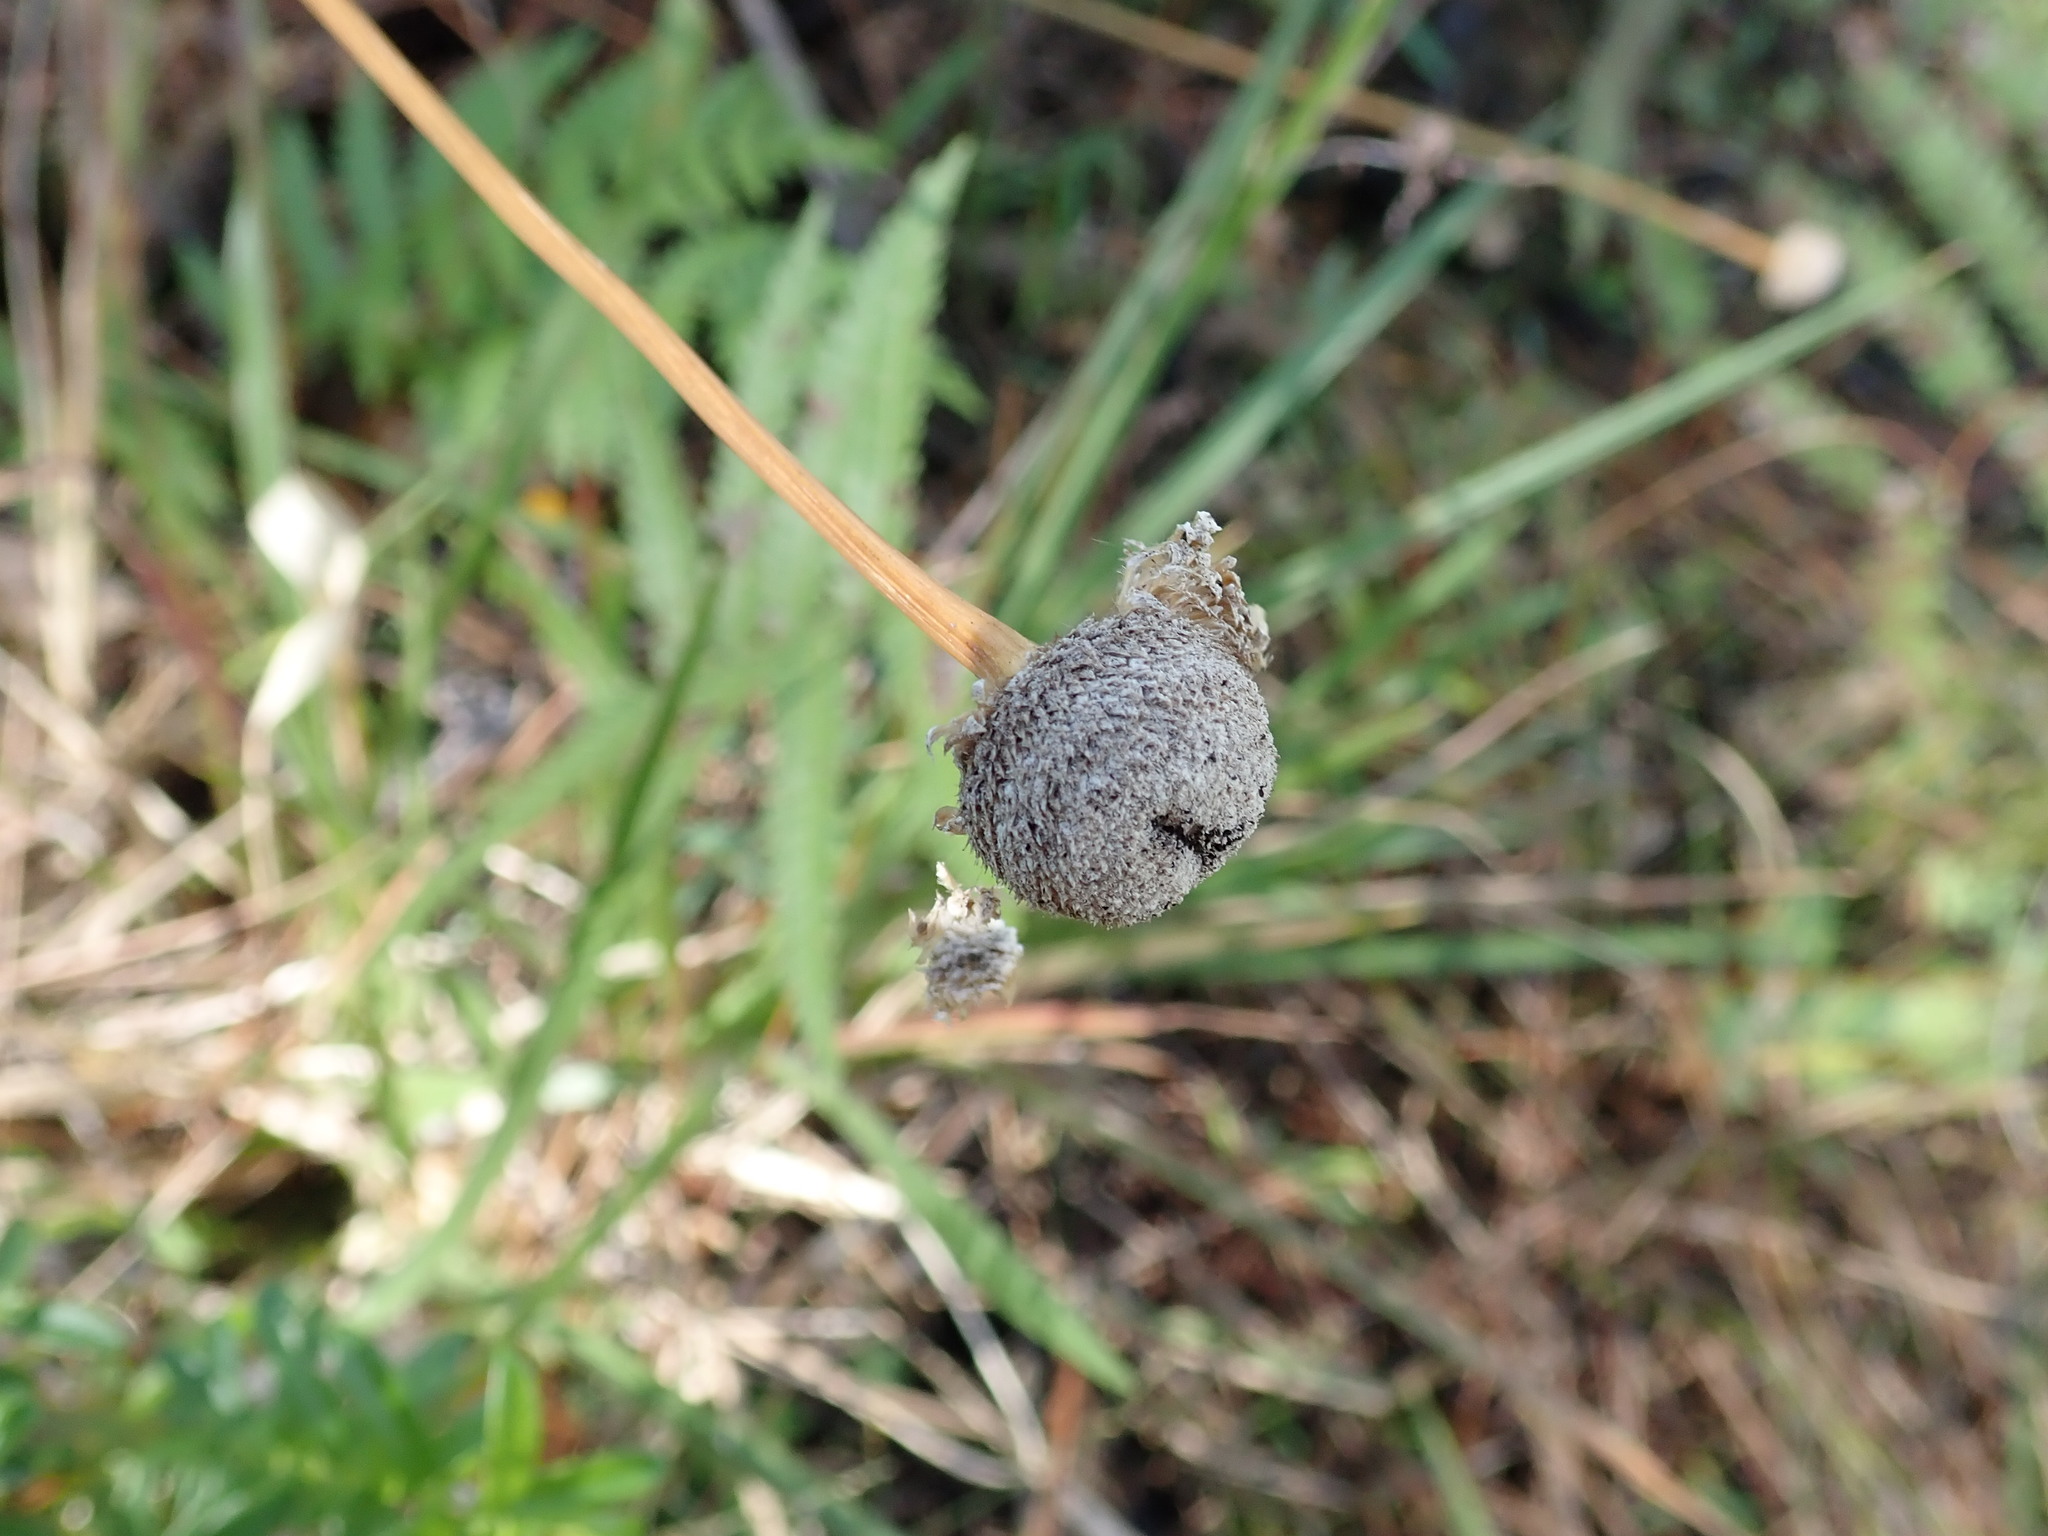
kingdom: Plantae
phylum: Tracheophyta
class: Liliopsida
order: Poales
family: Eriocaulaceae
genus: Eriocaulon
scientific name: Eriocaulon decangulare
